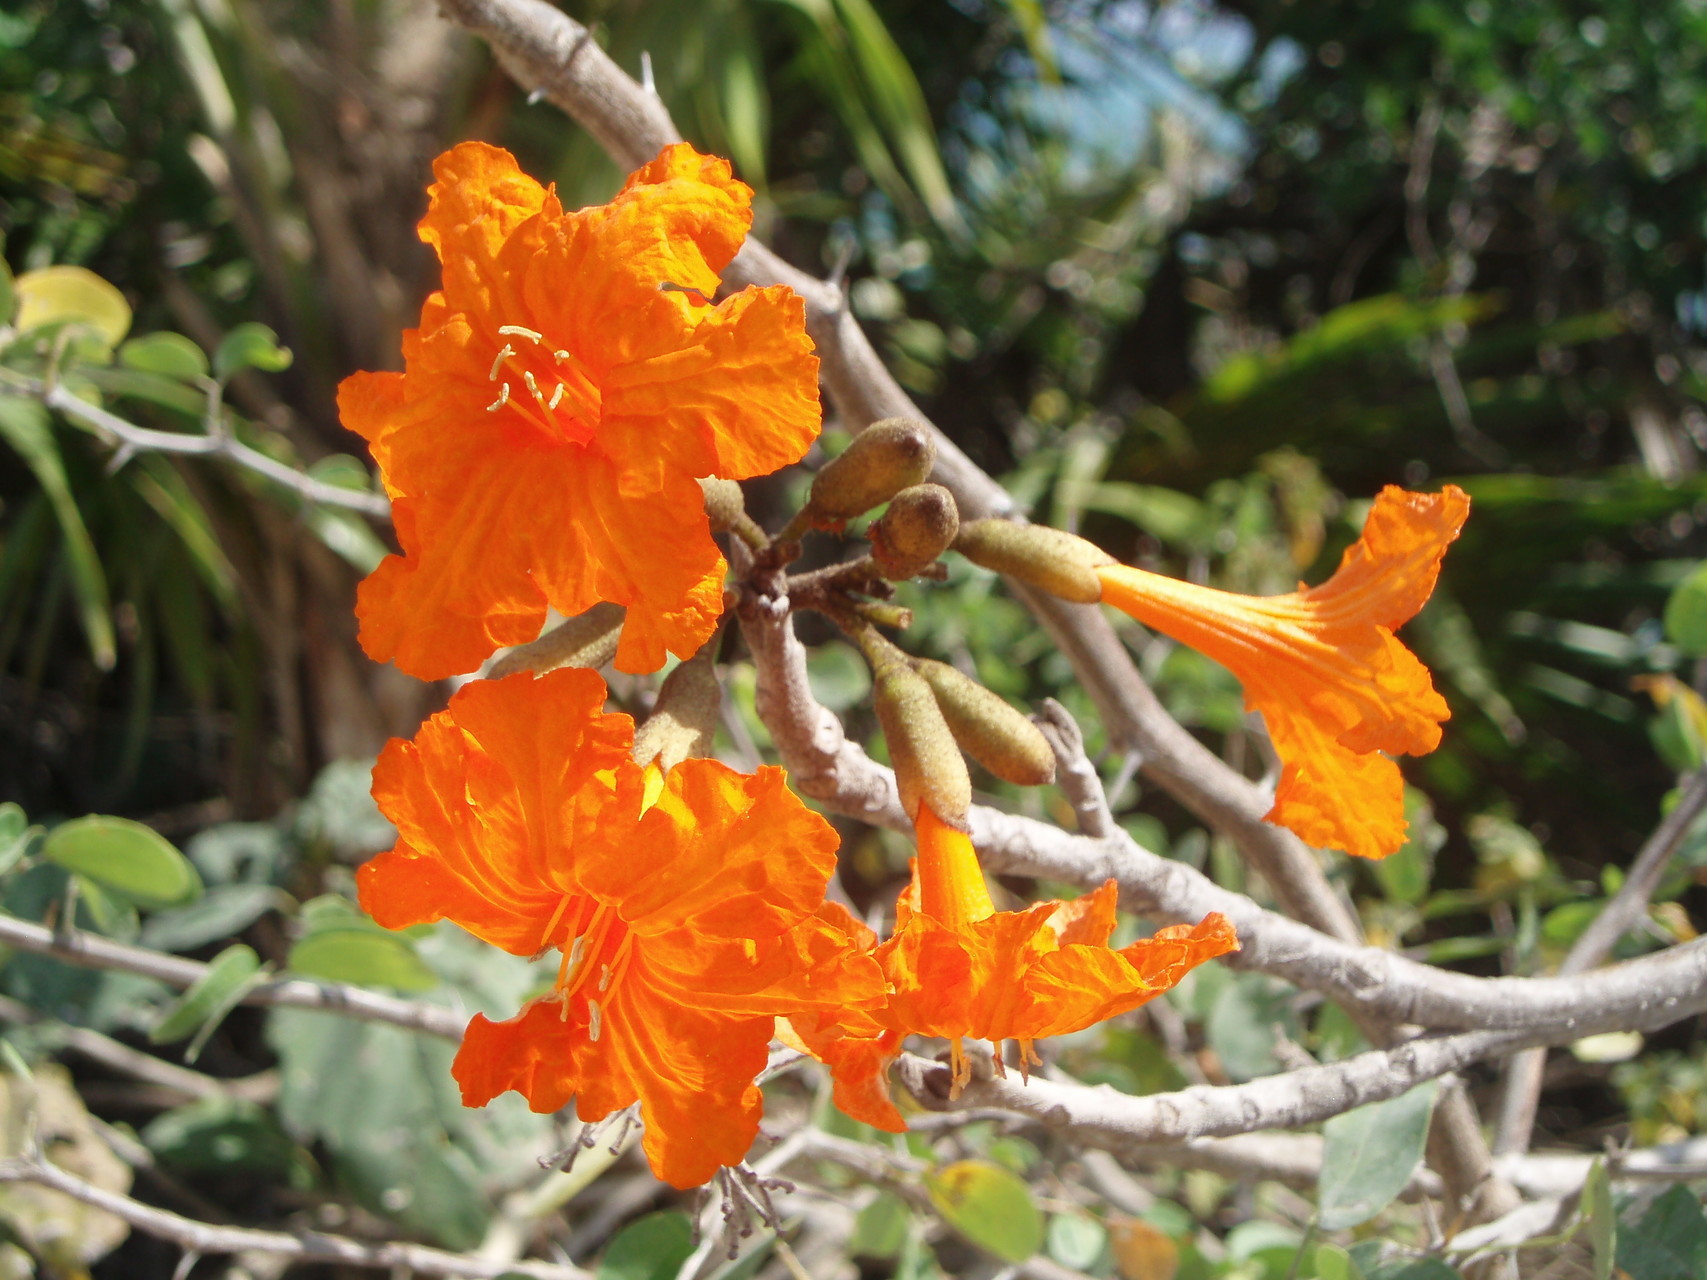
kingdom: Plantae
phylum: Tracheophyta
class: Magnoliopsida
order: Boraginales
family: Cordiaceae
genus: Cordia
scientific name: Cordia sebestena
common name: Largeleaf geigertree
